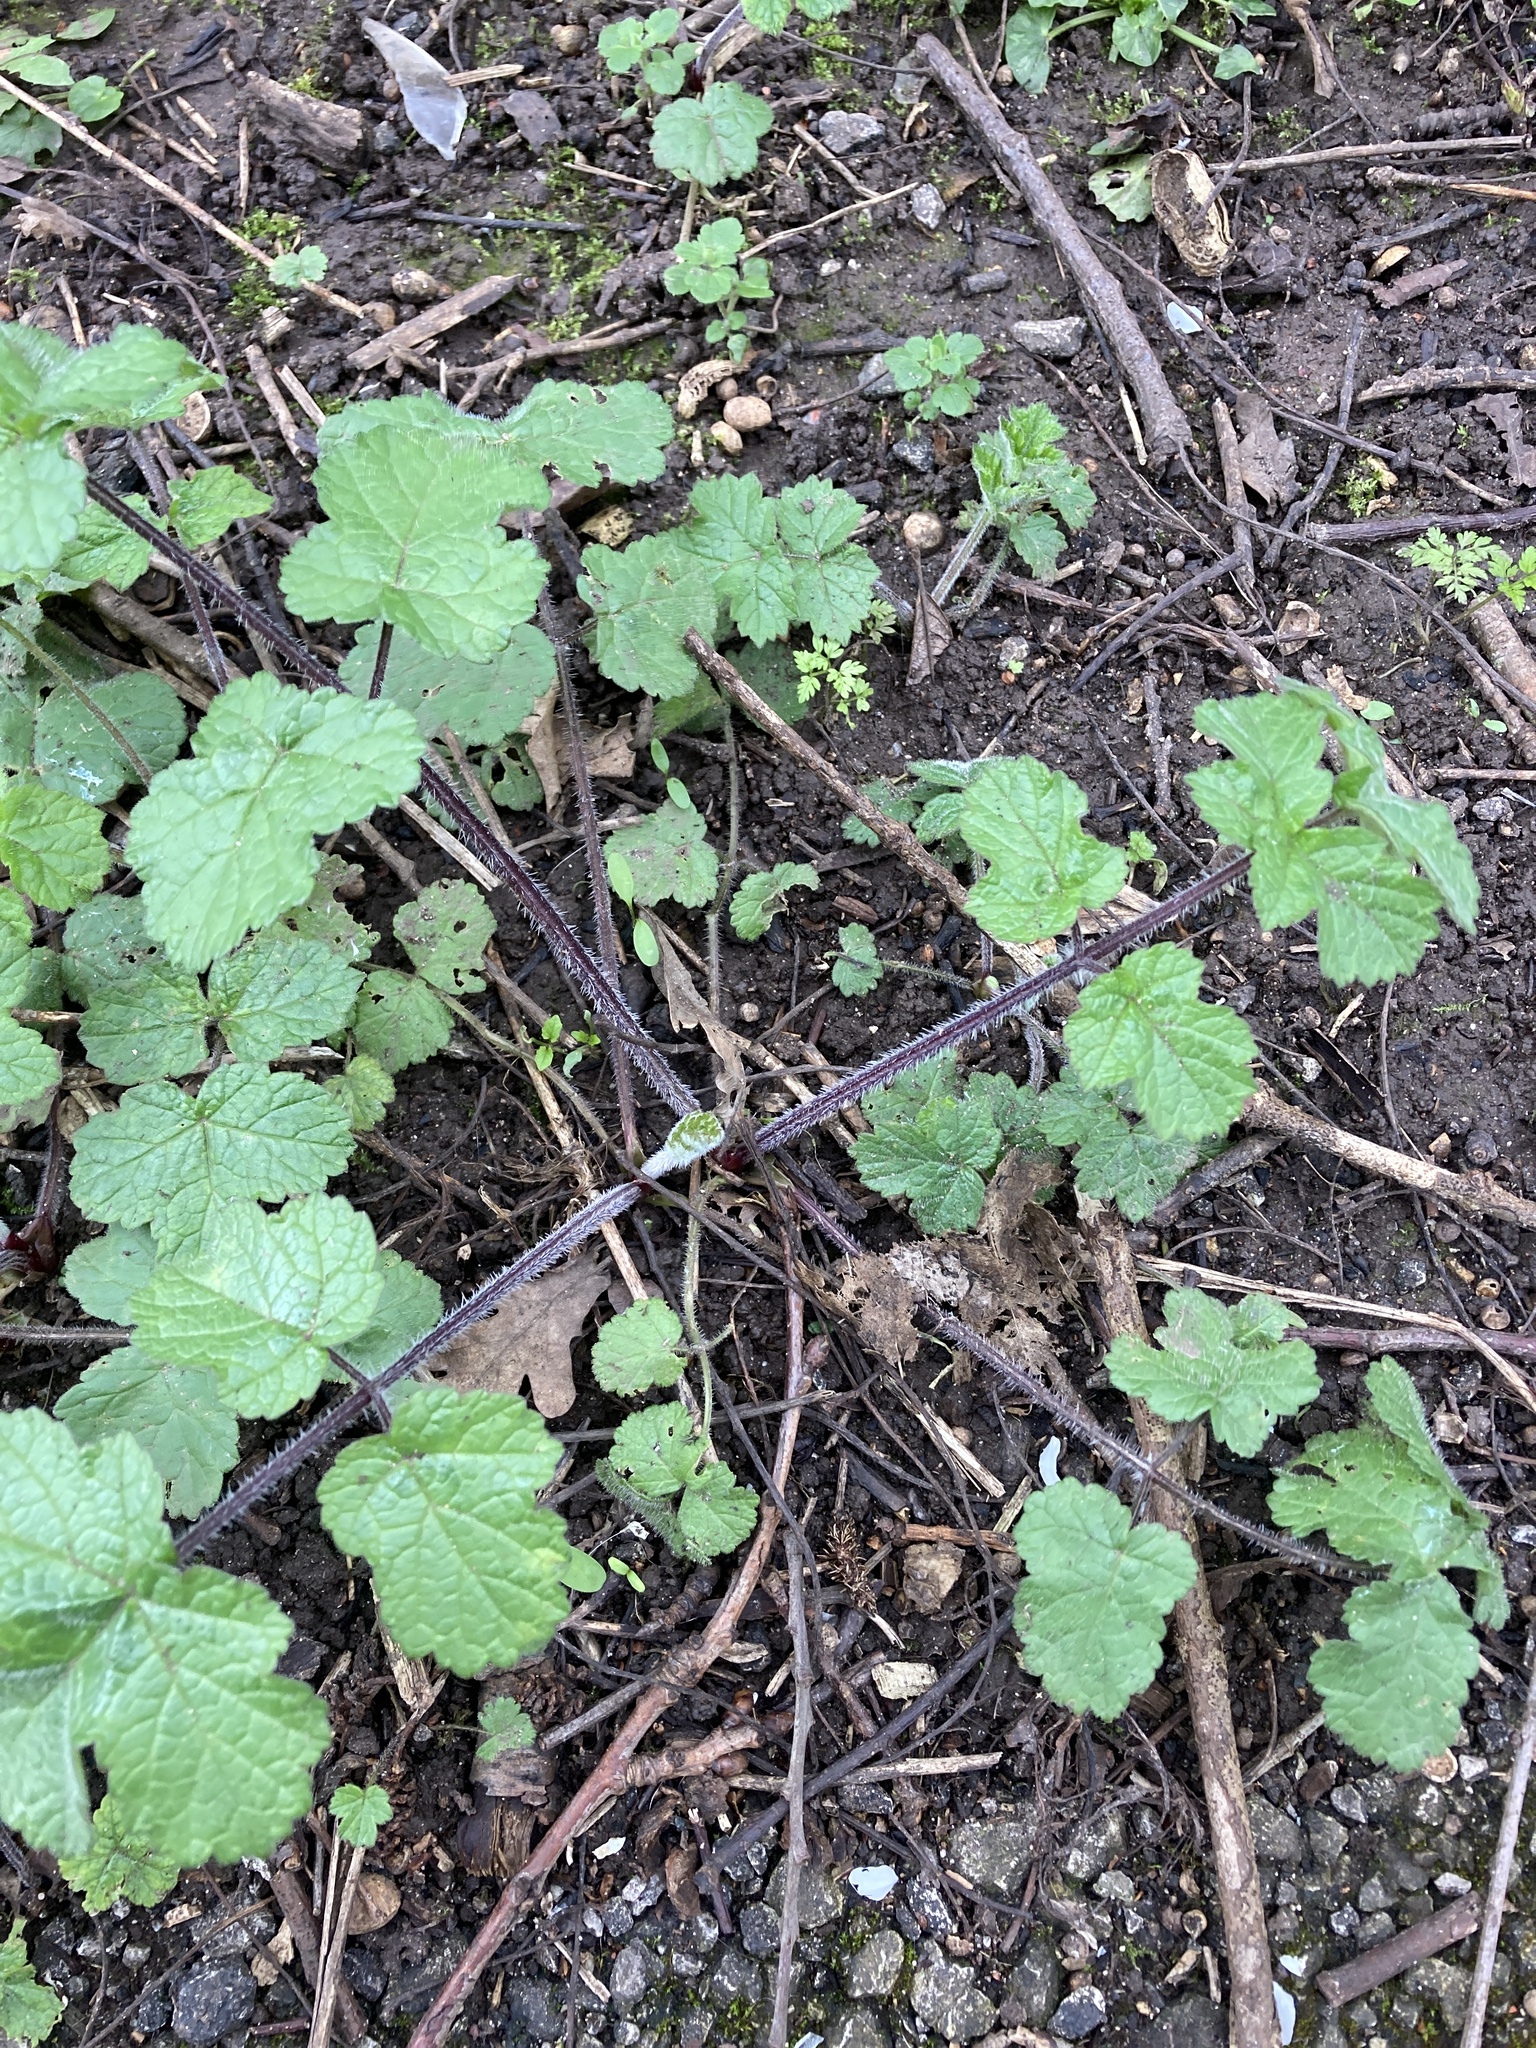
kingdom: Plantae
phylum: Tracheophyta
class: Magnoliopsida
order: Apiales
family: Apiaceae
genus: Heracleum
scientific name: Heracleum sphondylium
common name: Hogweed
